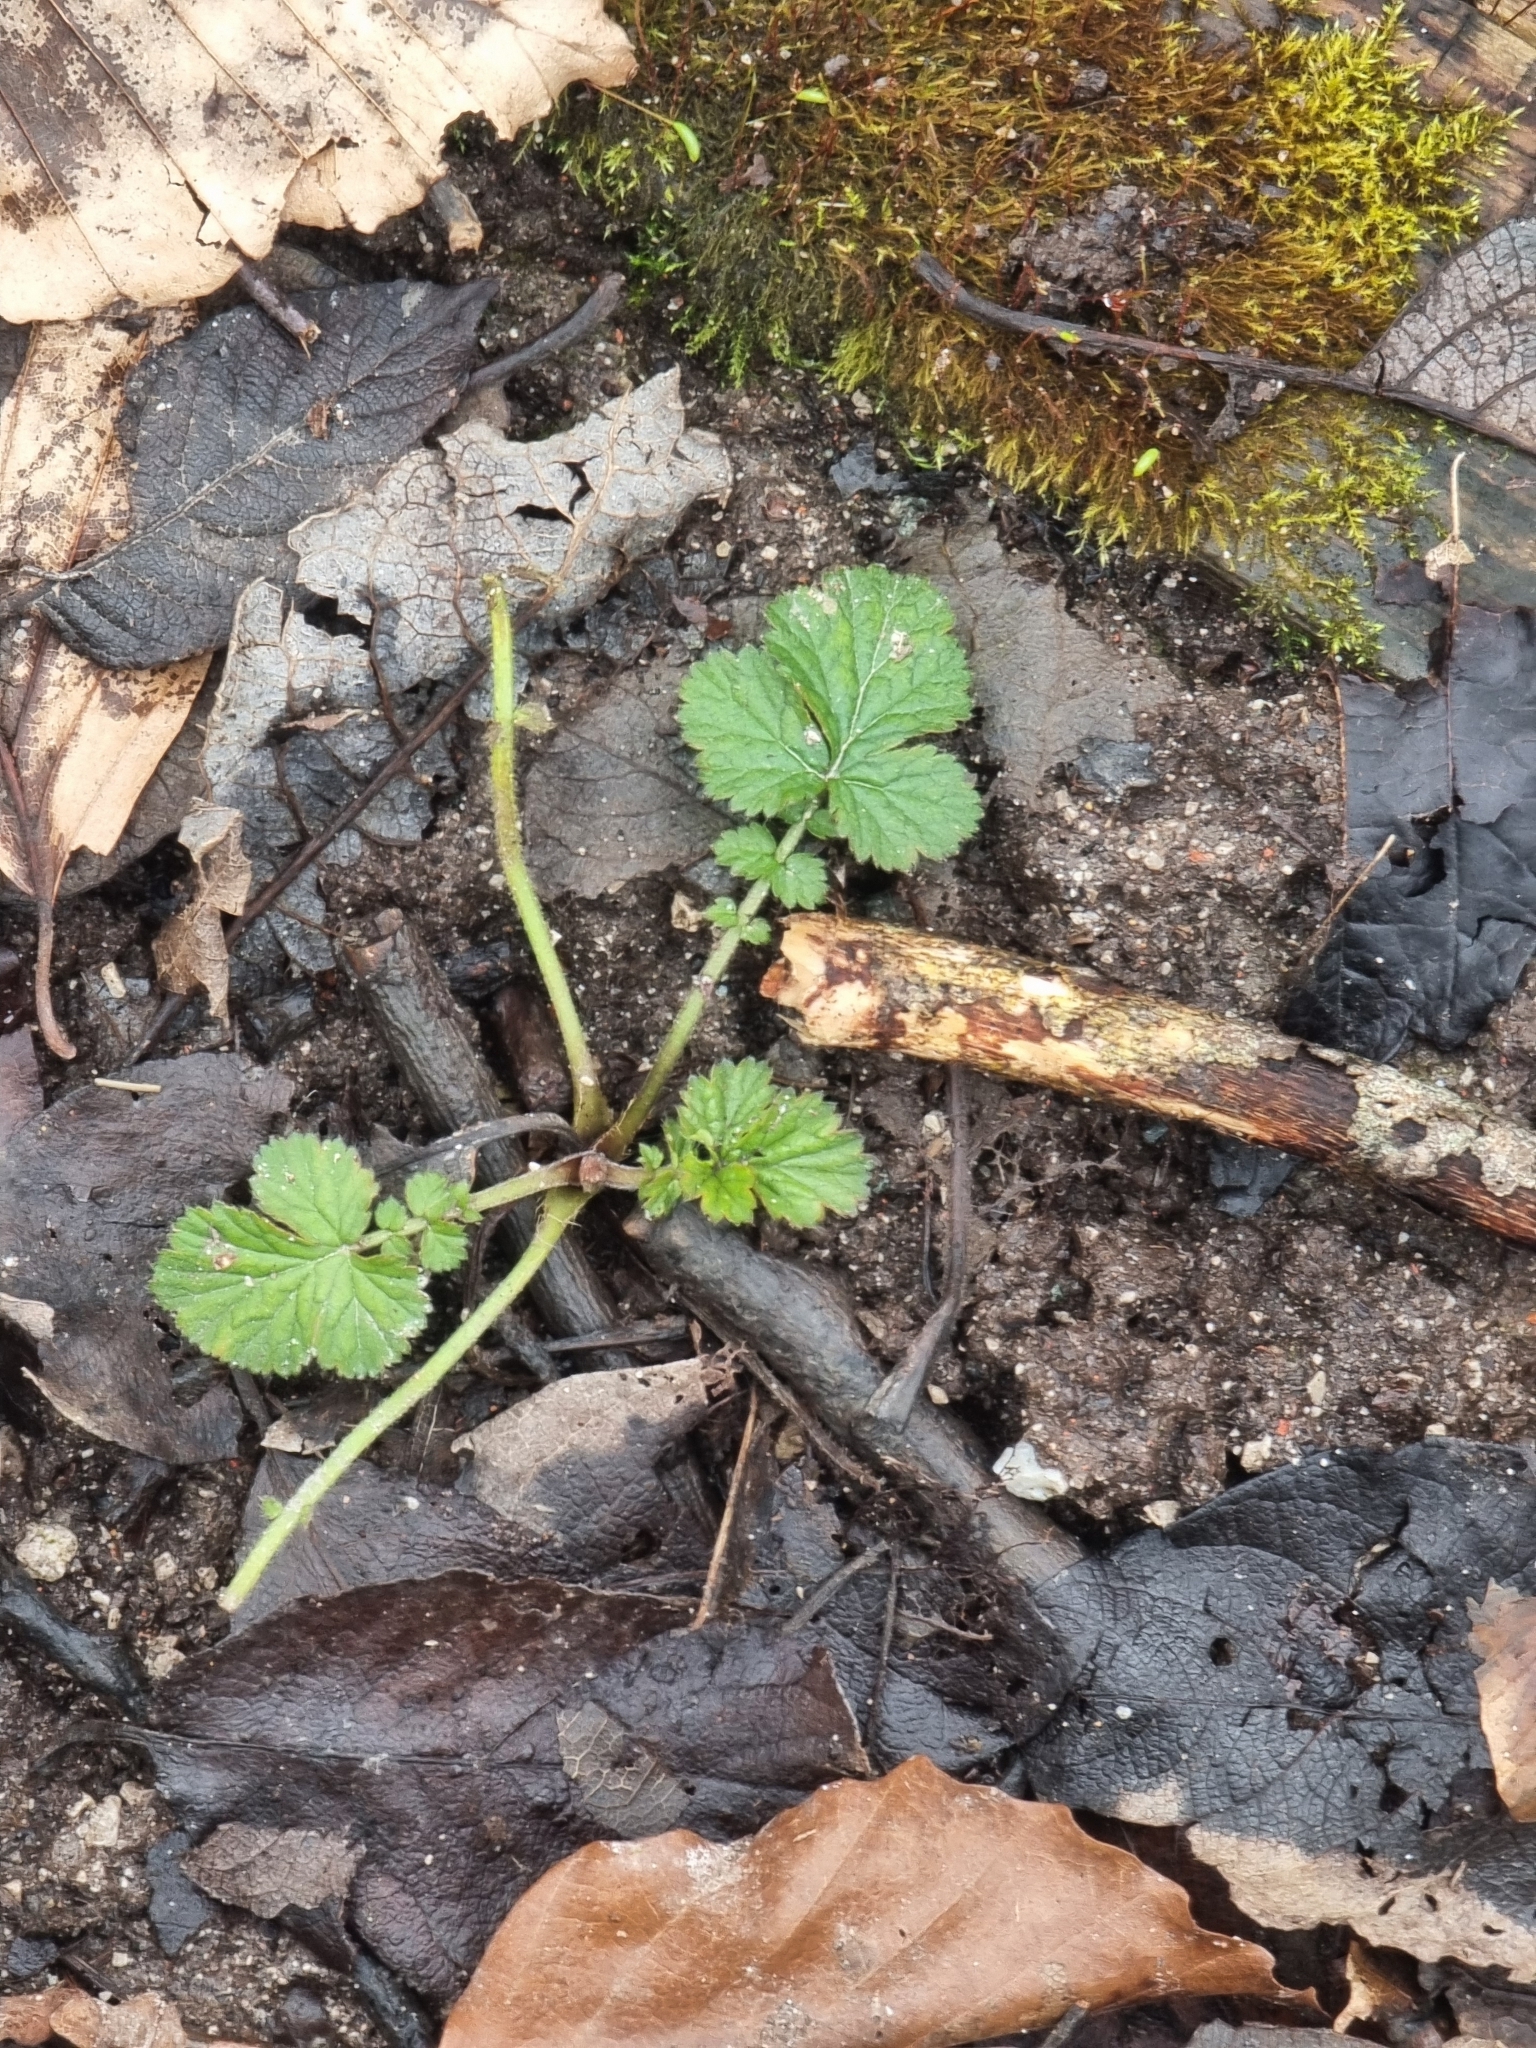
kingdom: Plantae
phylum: Tracheophyta
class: Magnoliopsida
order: Rosales
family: Rosaceae
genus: Geum
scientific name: Geum urbanum
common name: Wood avens
